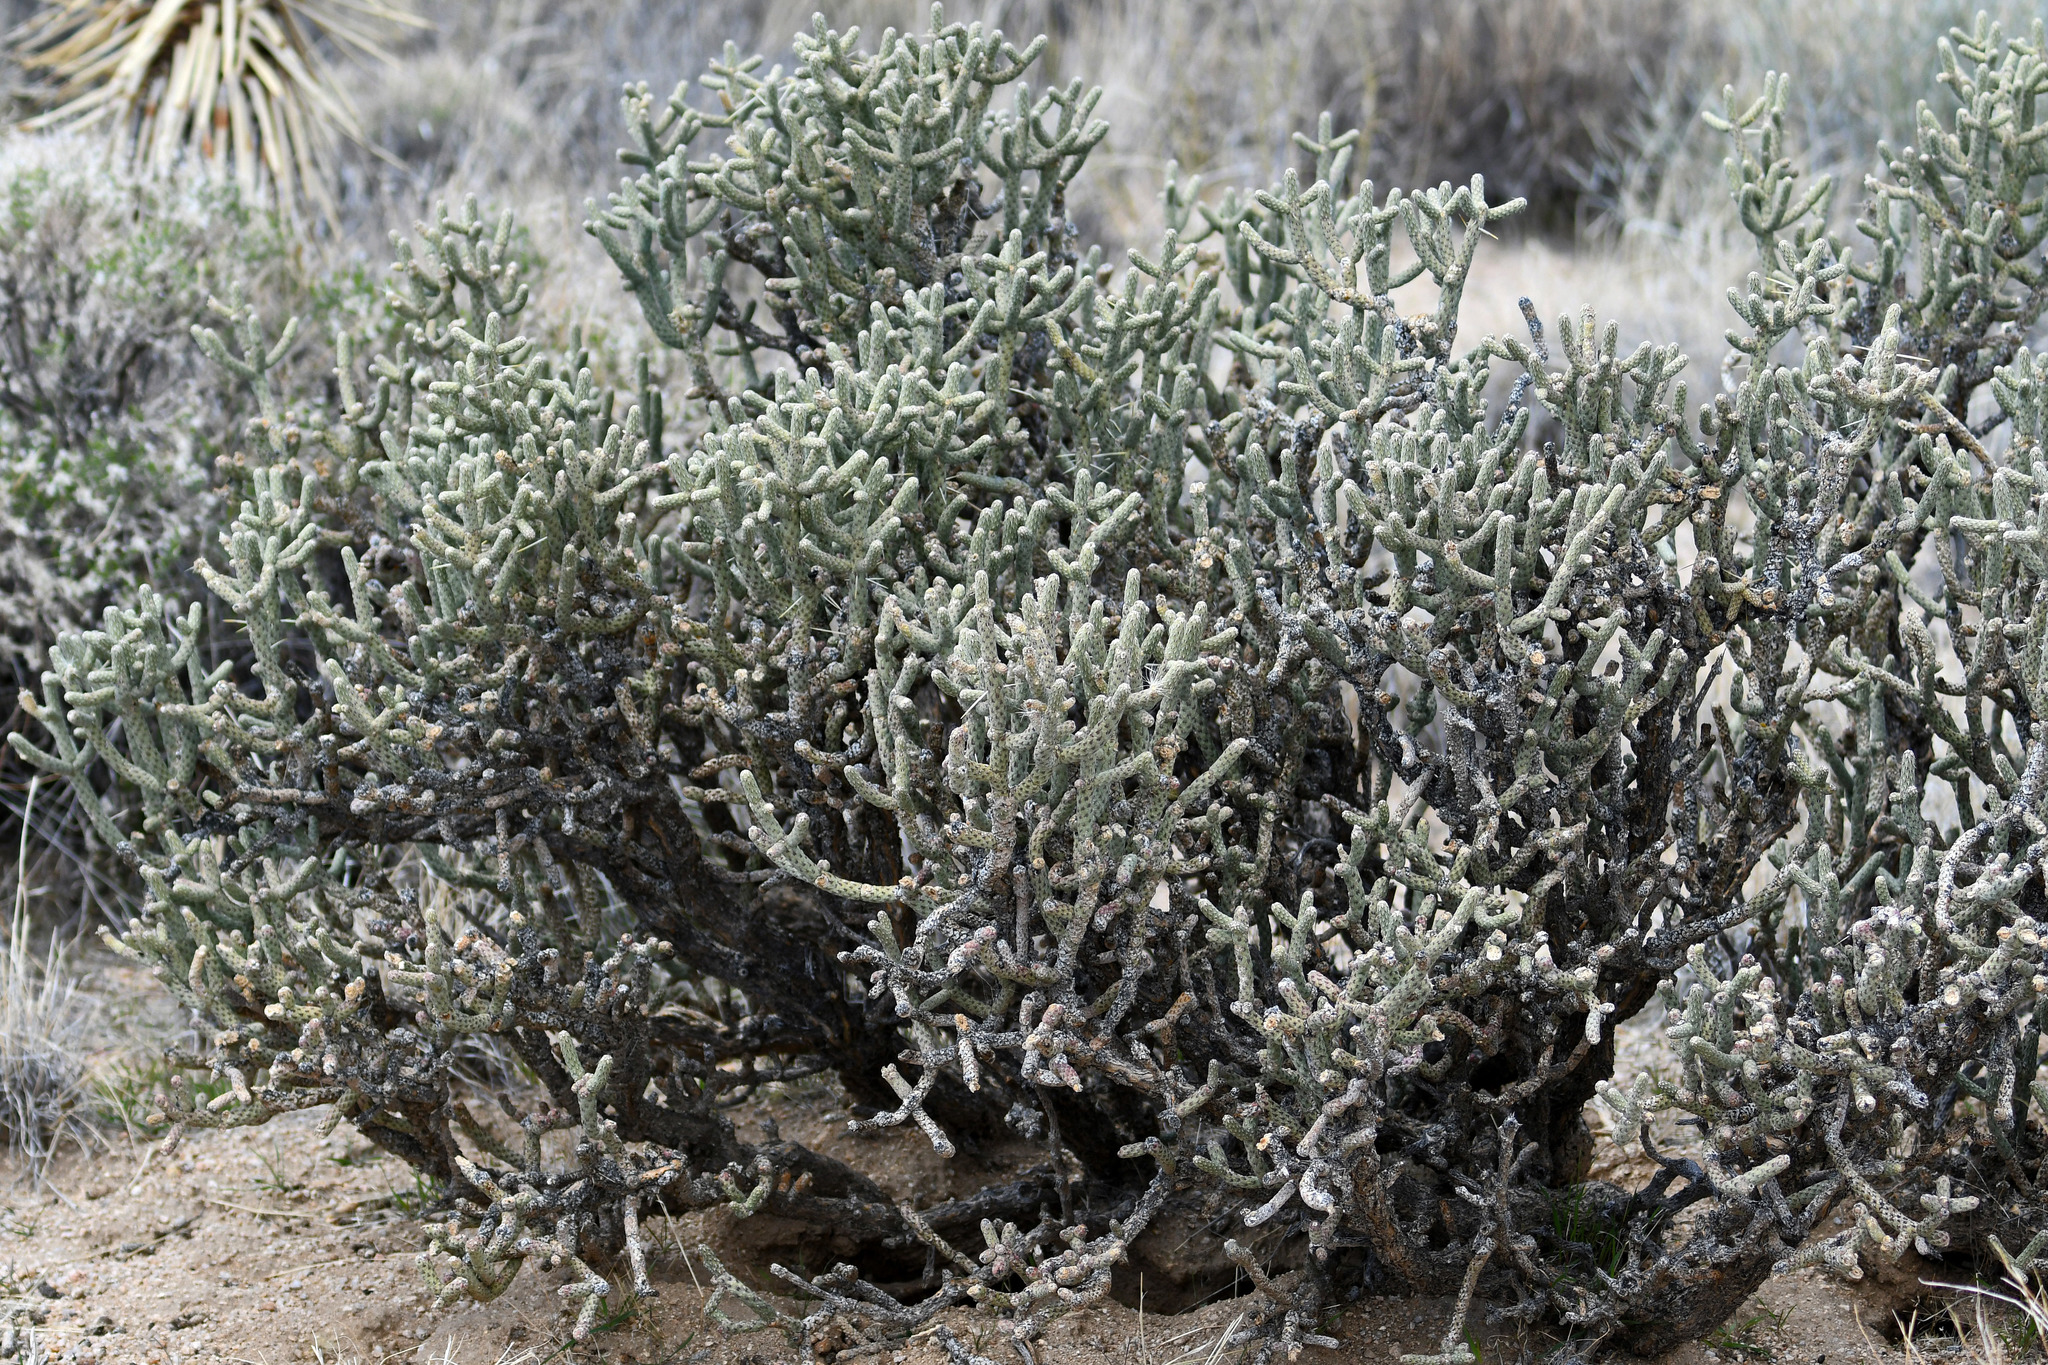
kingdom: Plantae
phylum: Tracheophyta
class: Magnoliopsida
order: Caryophyllales
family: Cactaceae
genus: Cylindropuntia
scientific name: Cylindropuntia ramosissima
